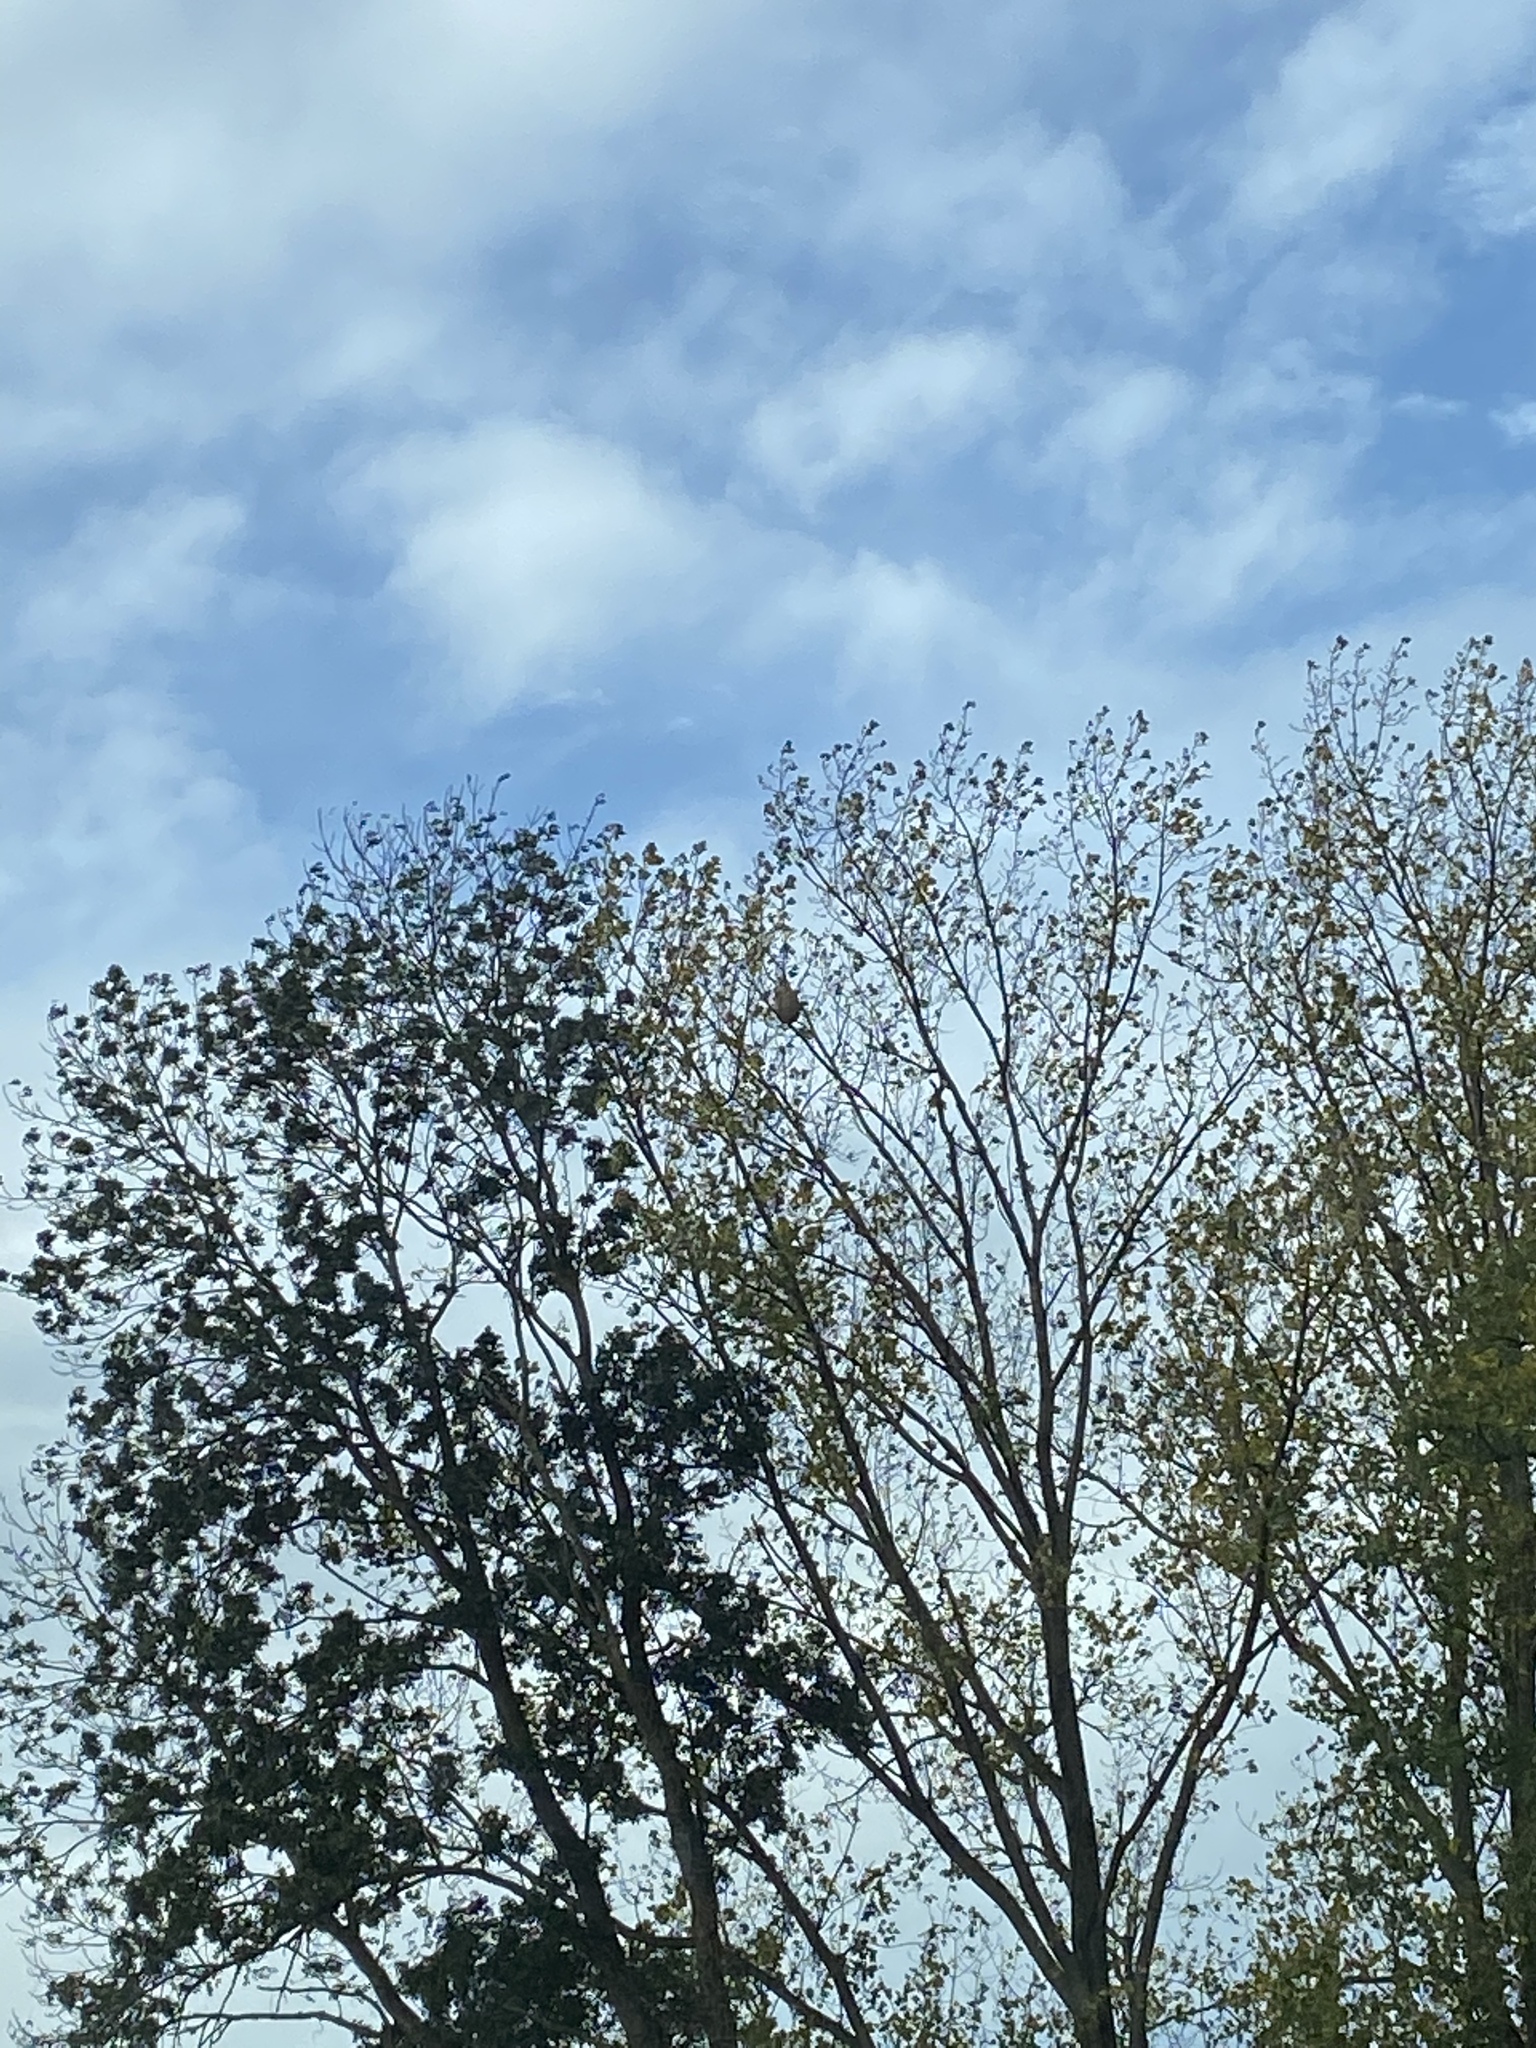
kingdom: Animalia
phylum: Arthropoda
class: Insecta
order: Hymenoptera
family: Vespidae
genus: Vespa
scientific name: Vespa velutina
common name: Asian hornet
